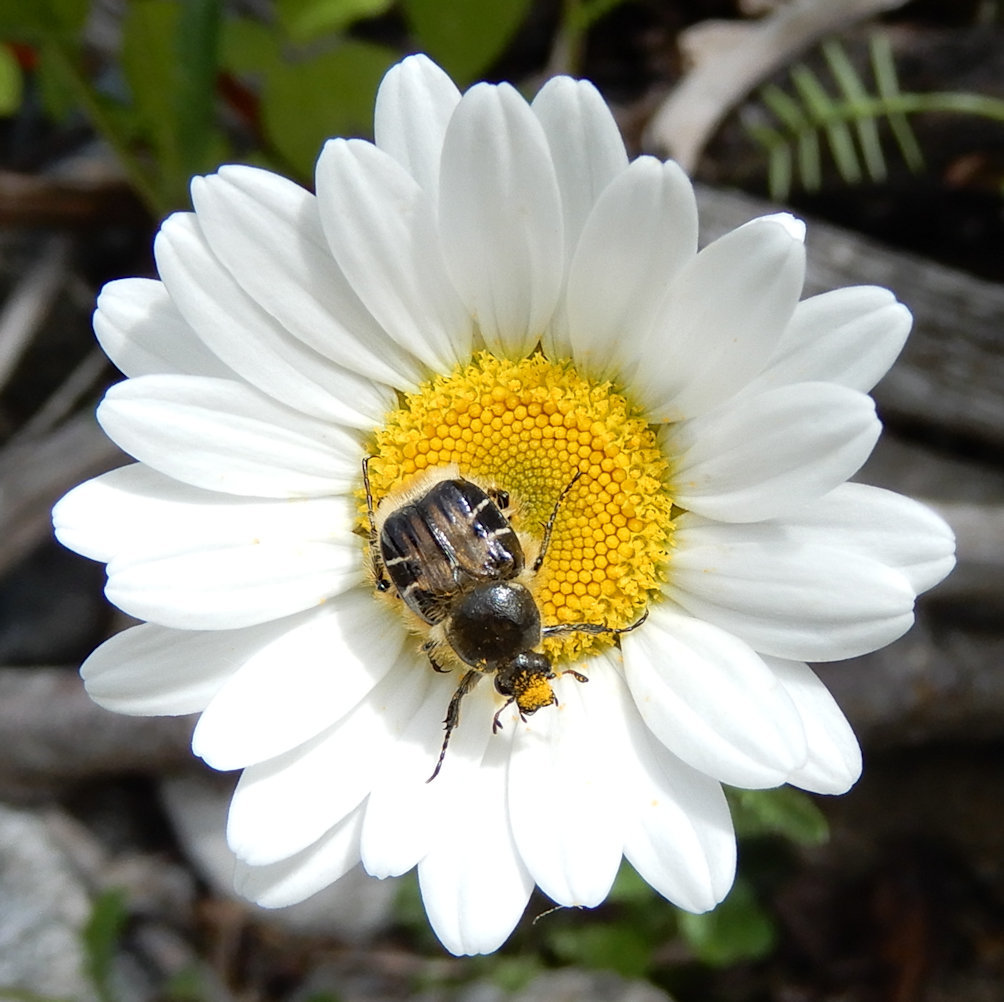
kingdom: Animalia
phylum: Arthropoda
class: Insecta
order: Coleoptera
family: Scarabaeidae
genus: Trichiotinus
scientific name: Trichiotinus assimilis
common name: Bee-mimic beetle
